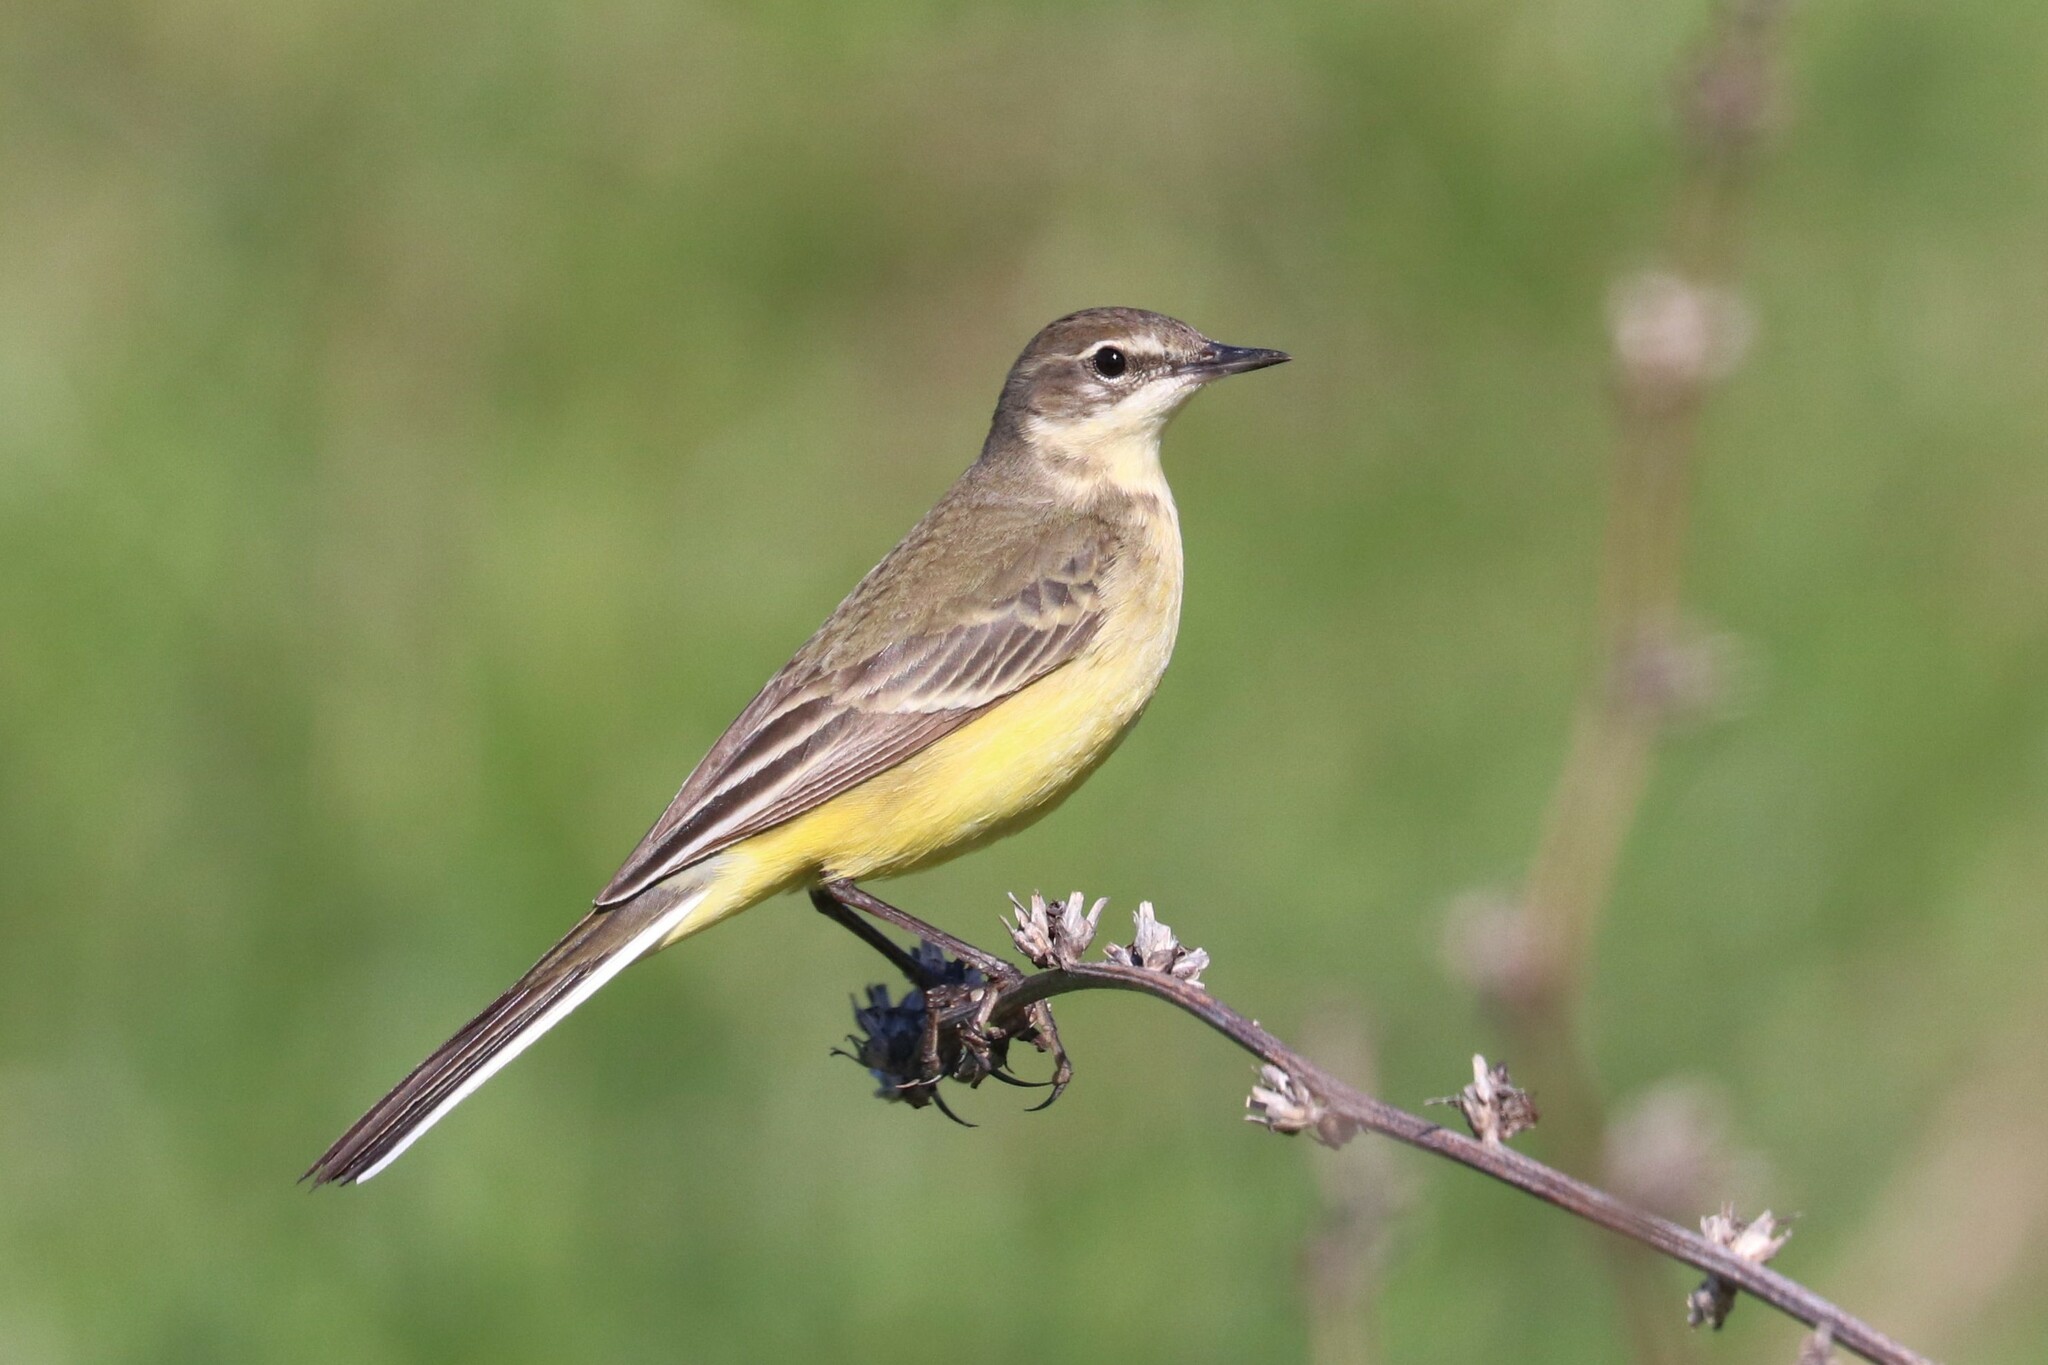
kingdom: Animalia
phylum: Chordata
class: Aves
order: Passeriformes
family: Motacillidae
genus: Motacilla
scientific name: Motacilla flava
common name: Western yellow wagtail
